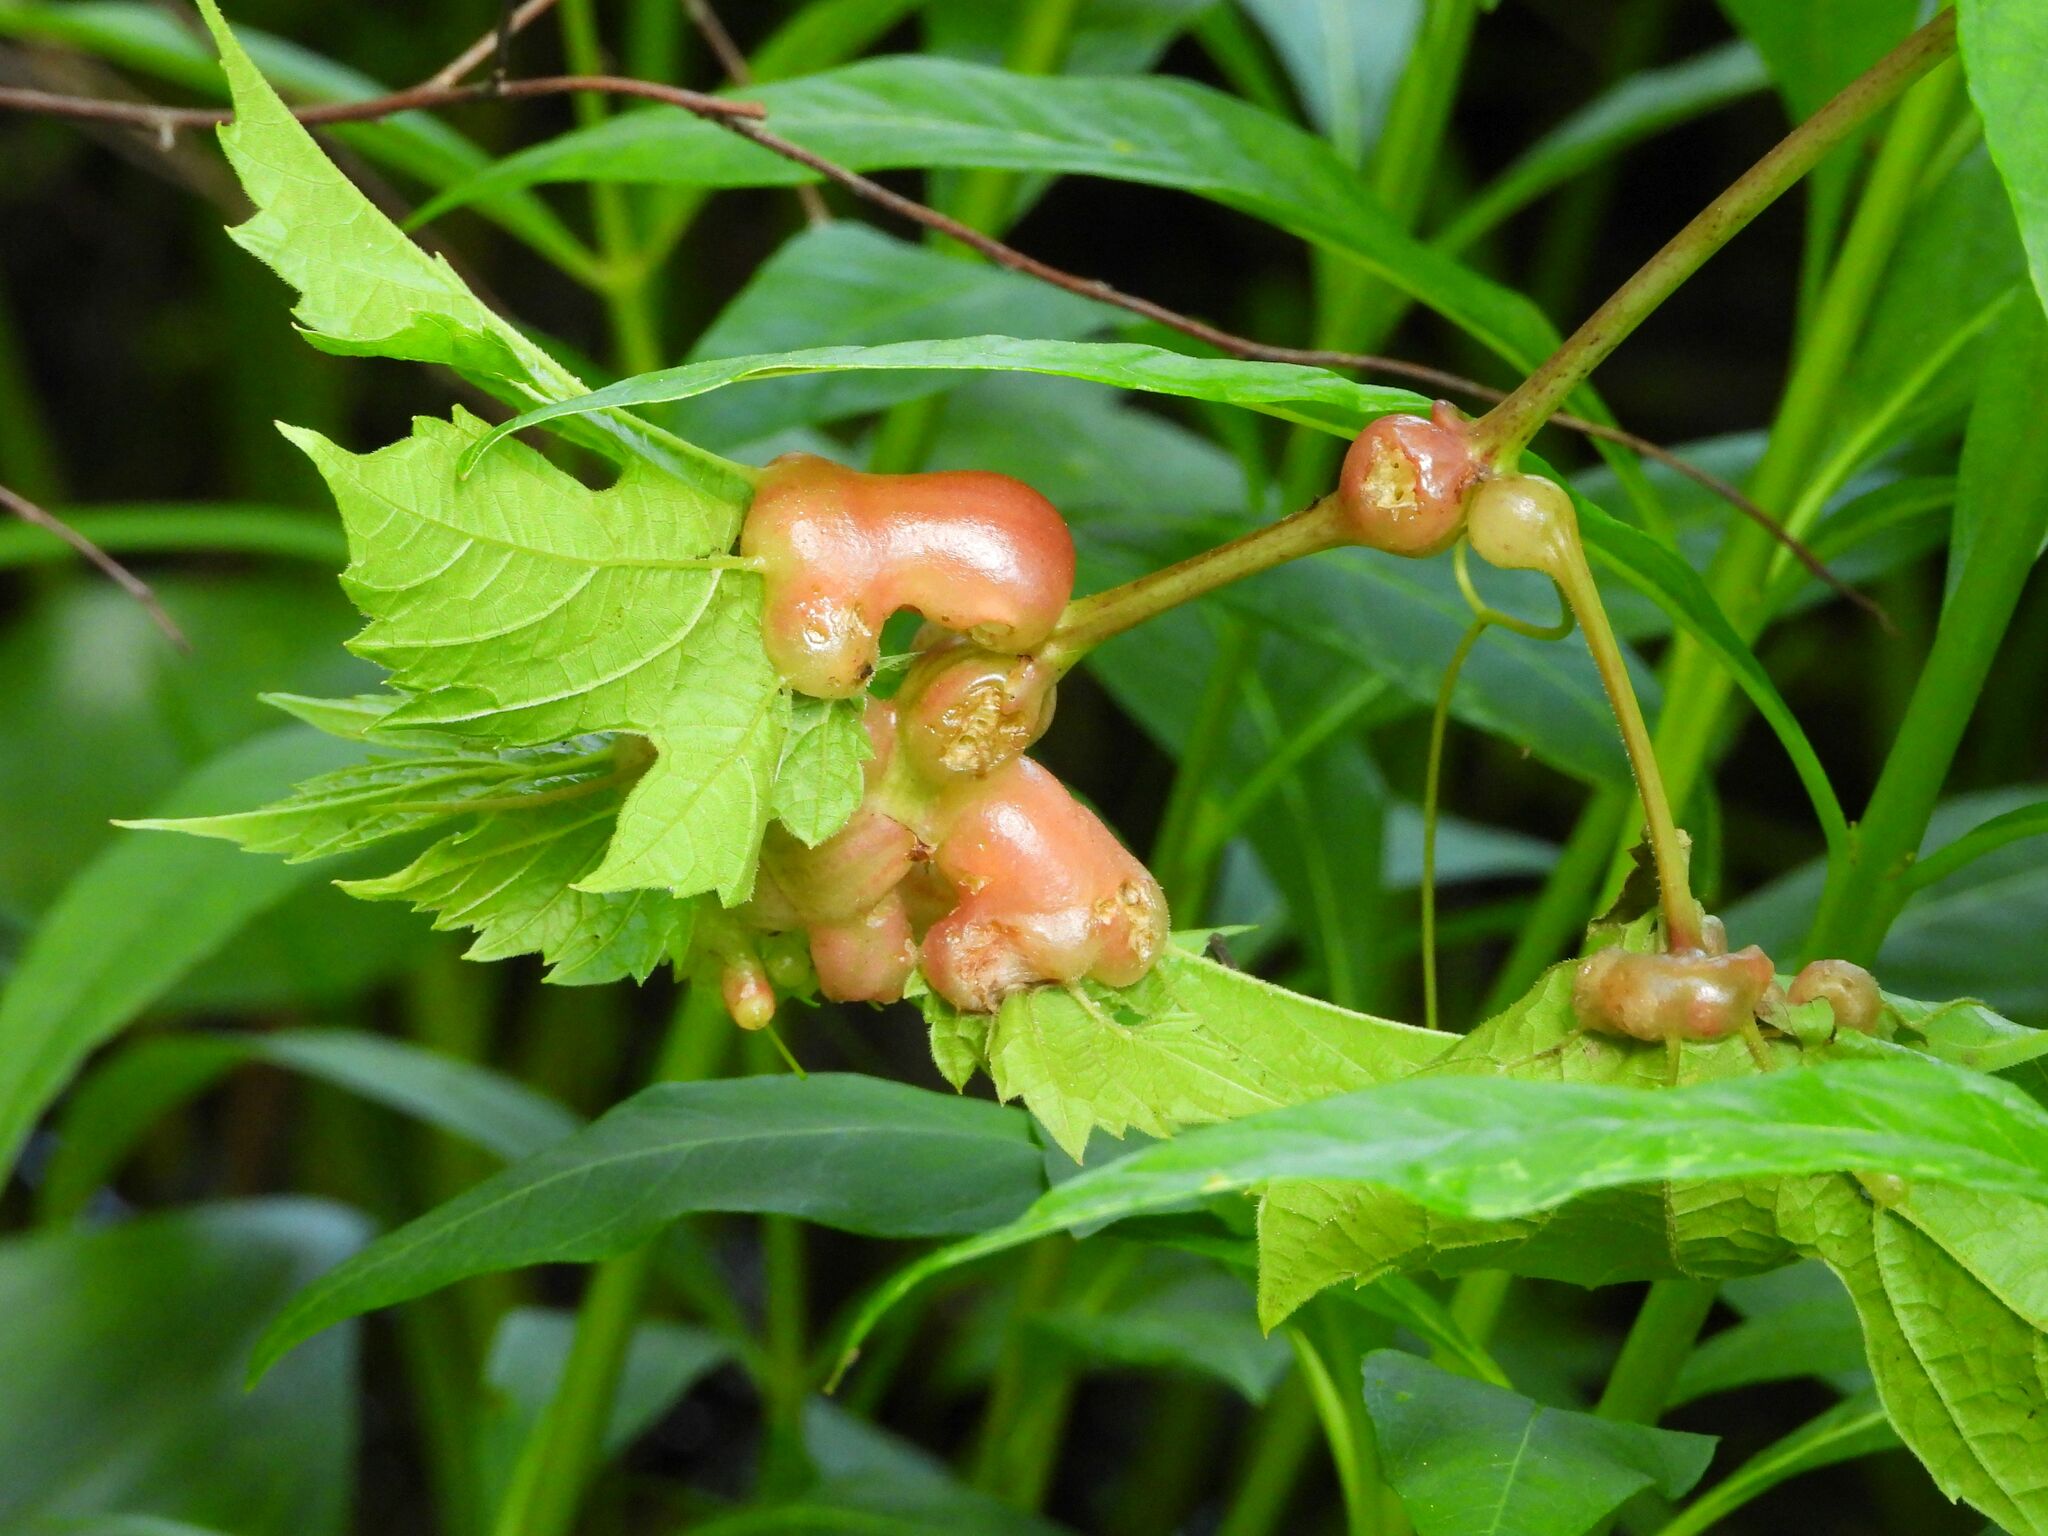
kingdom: Animalia
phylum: Arthropoda
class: Insecta
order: Diptera
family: Cecidomyiidae
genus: Vitisiella
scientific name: Vitisiella brevicauda
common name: Grape tumid gallmaker midge
